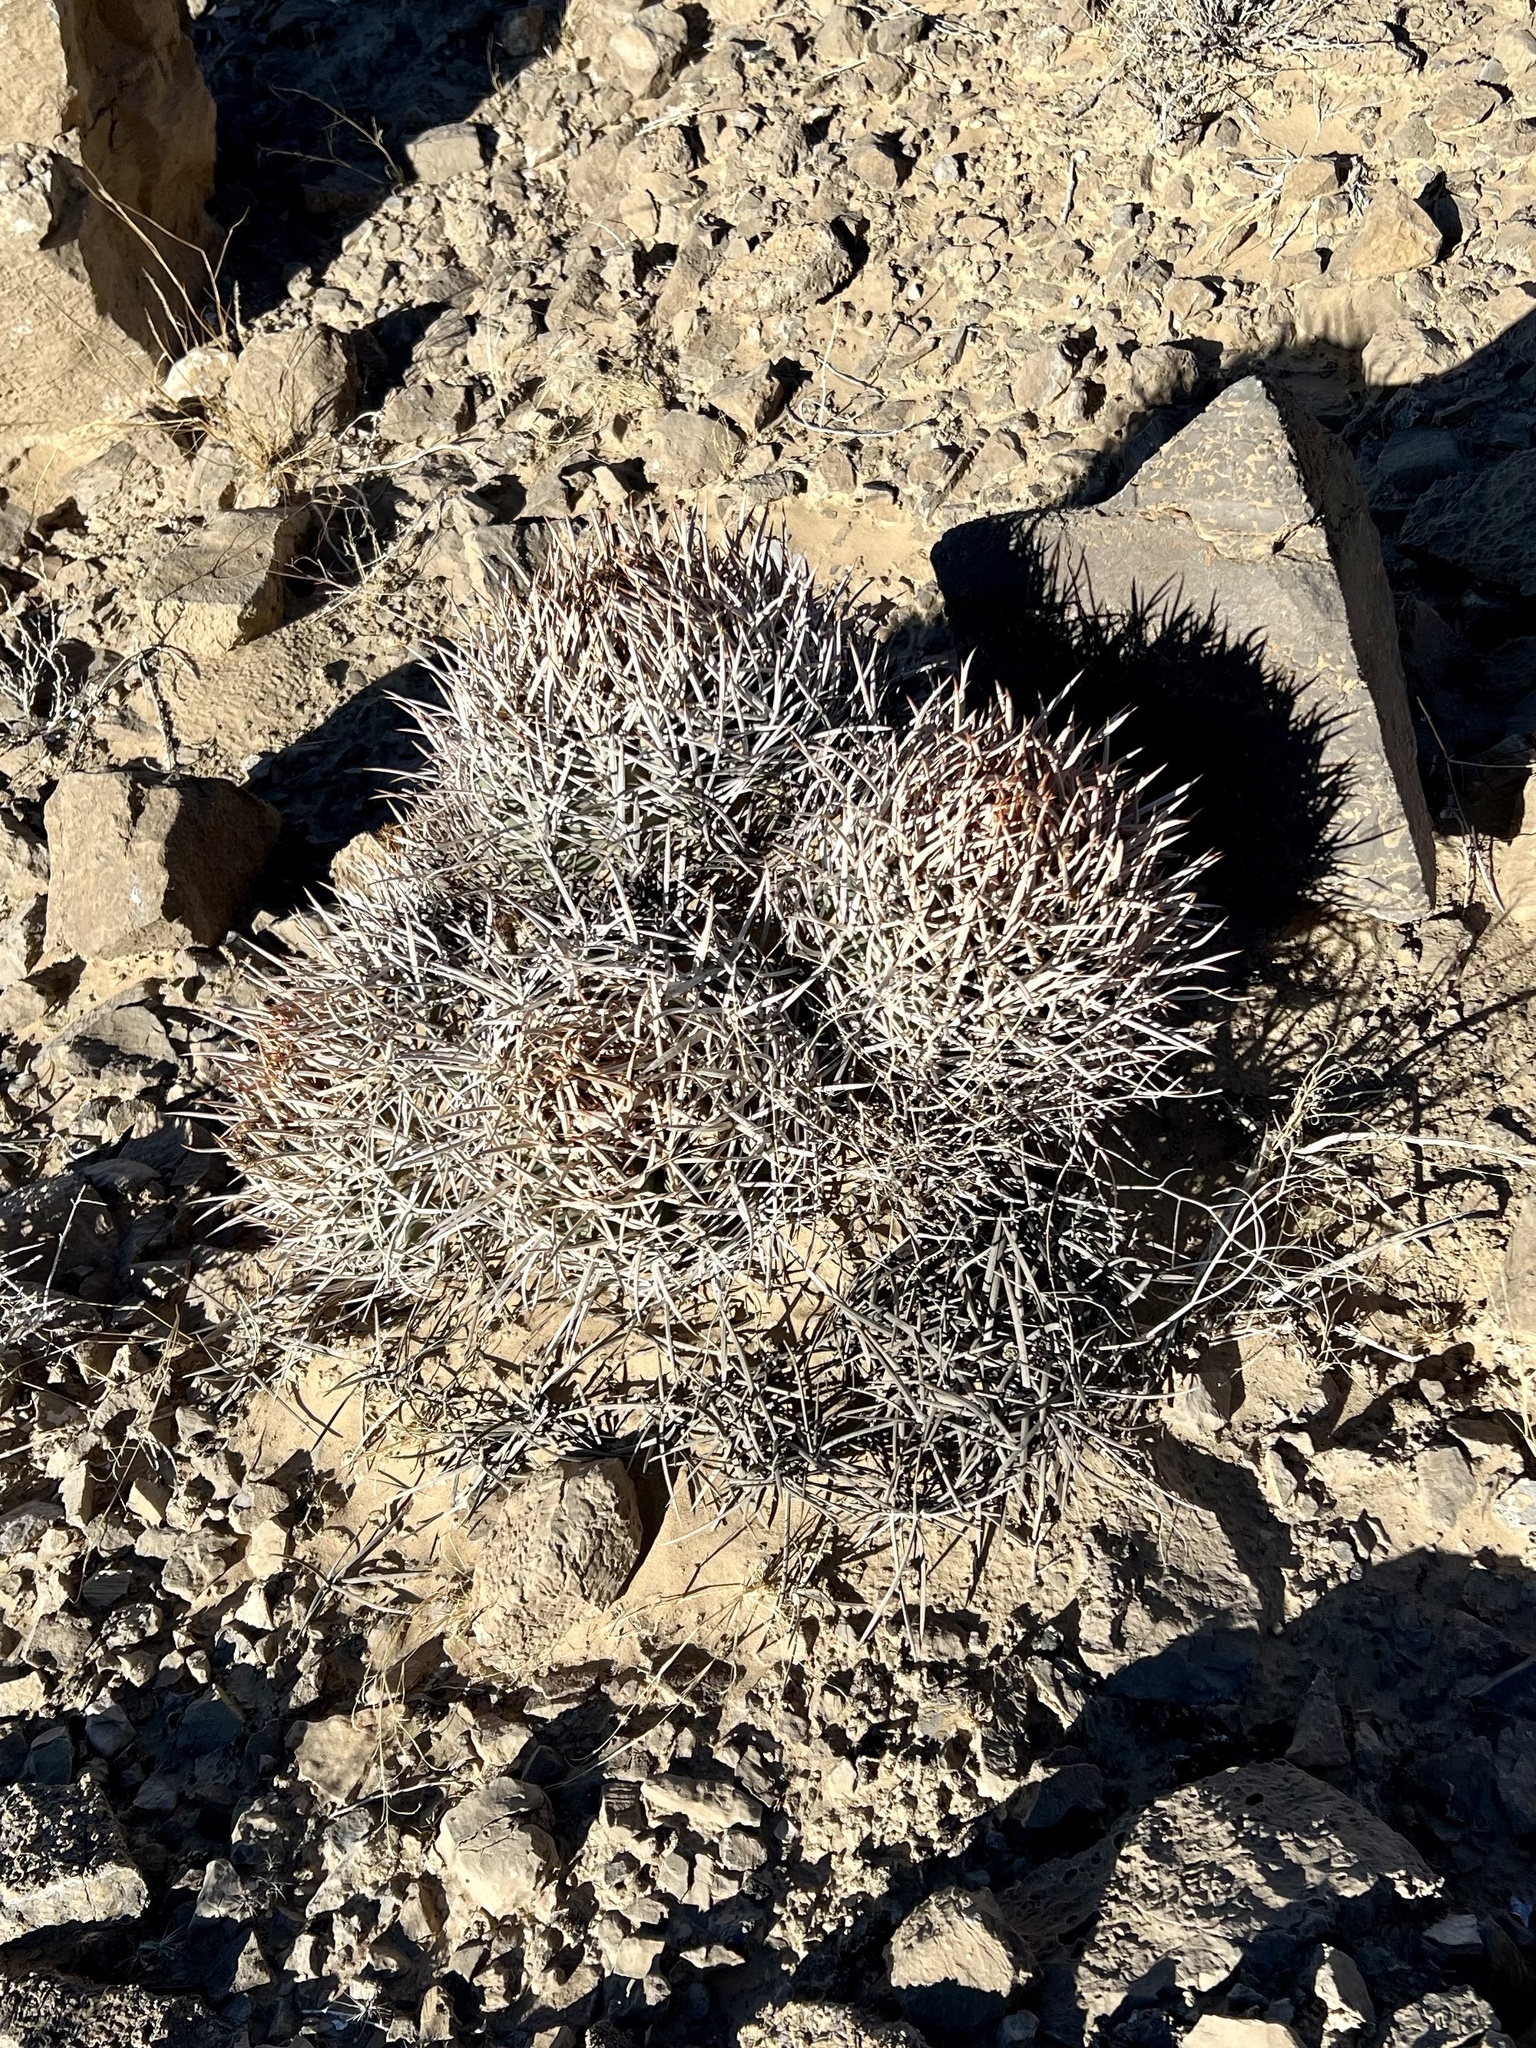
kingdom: Plantae
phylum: Tracheophyta
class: Magnoliopsida
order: Caryophyllales
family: Cactaceae
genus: Echinocactus
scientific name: Echinocactus polycephalus
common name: Cottontop cactus
